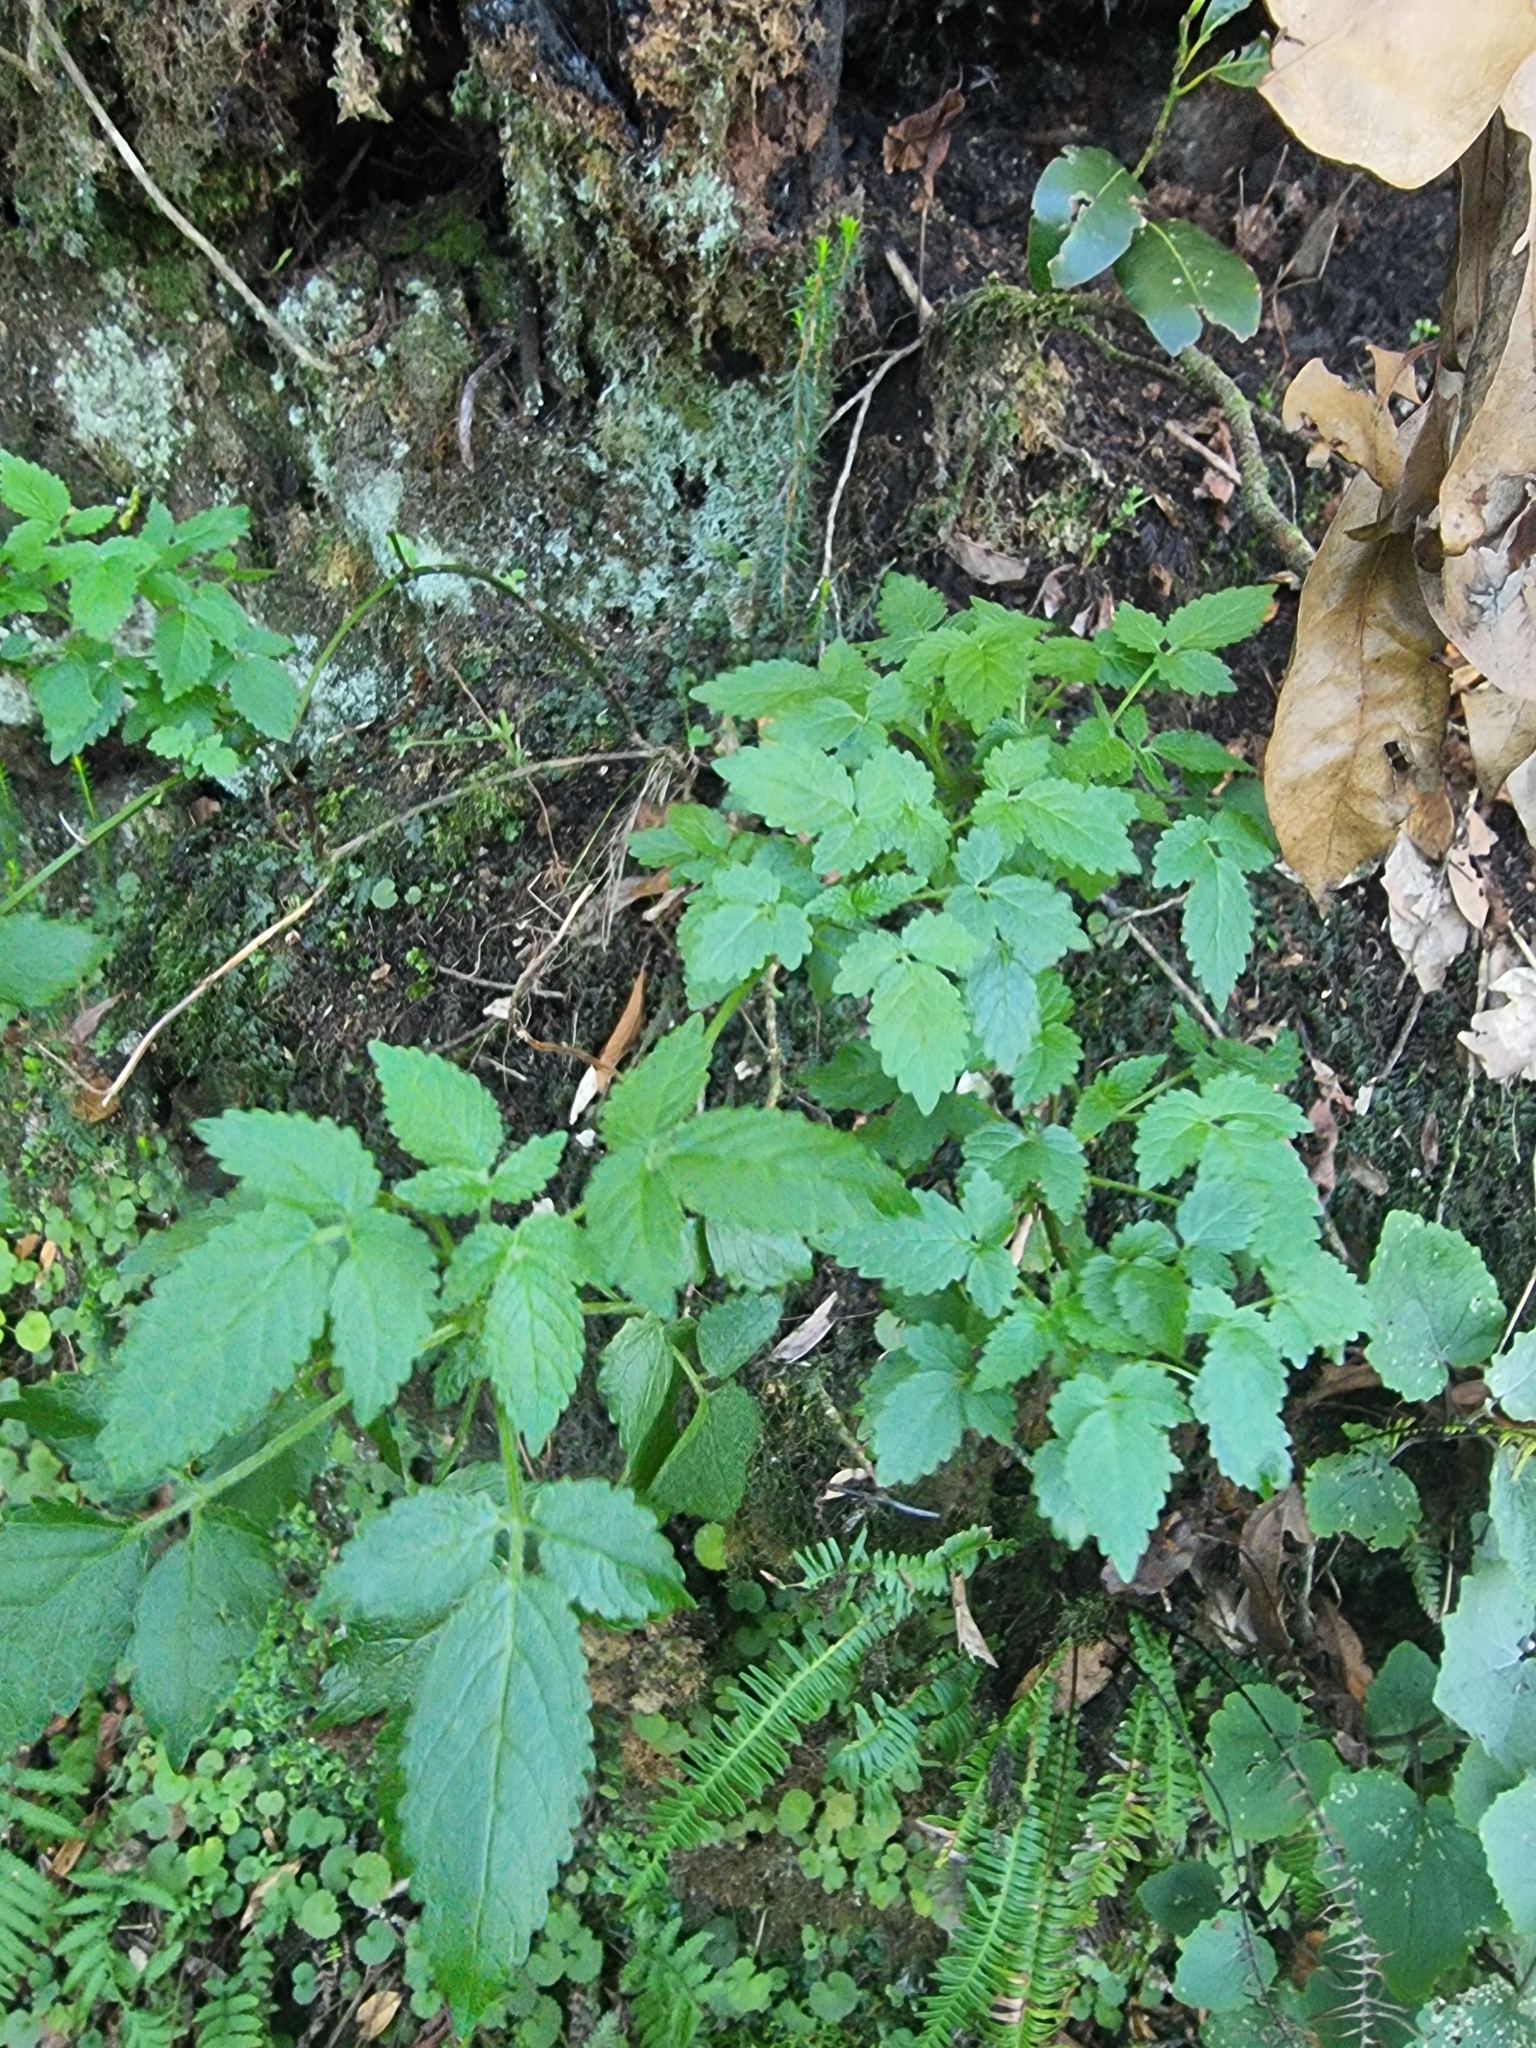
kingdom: Plantae
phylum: Tracheophyta
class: Magnoliopsida
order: Lamiales
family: Lamiaceae
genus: Cedronella
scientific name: Cedronella canariensis
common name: Canary islands balm
